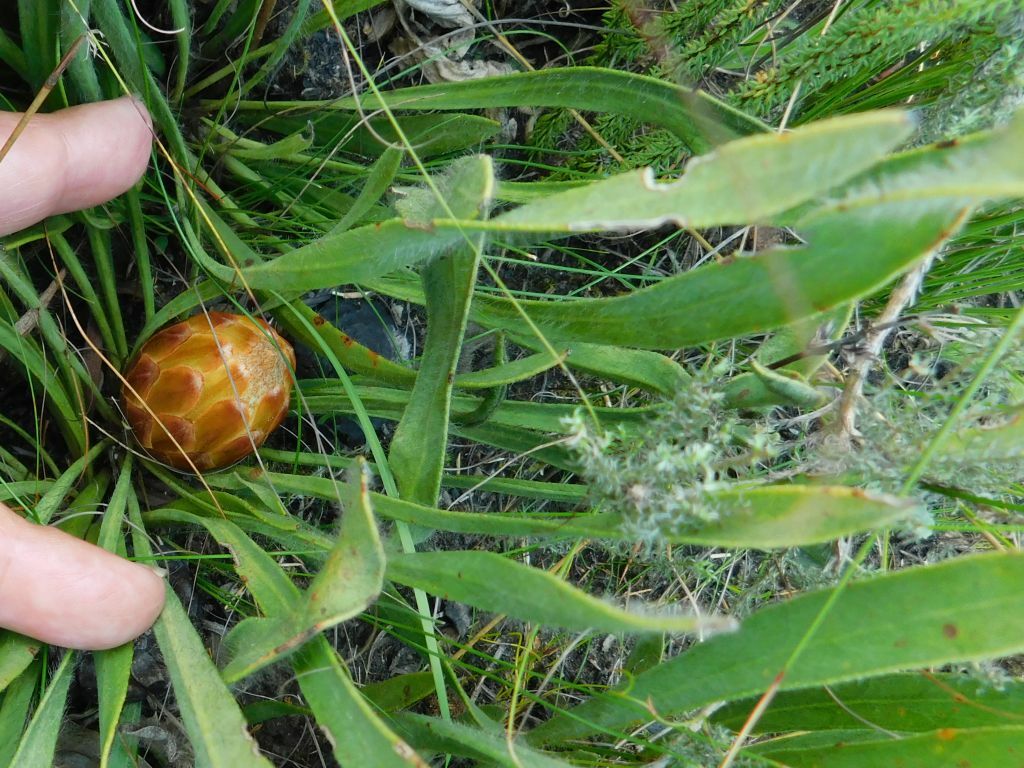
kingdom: Plantae
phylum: Tracheophyta
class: Magnoliopsida
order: Proteales
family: Proteaceae
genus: Protea
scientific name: Protea scabra
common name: Sandpaper-leaf sugarbush
